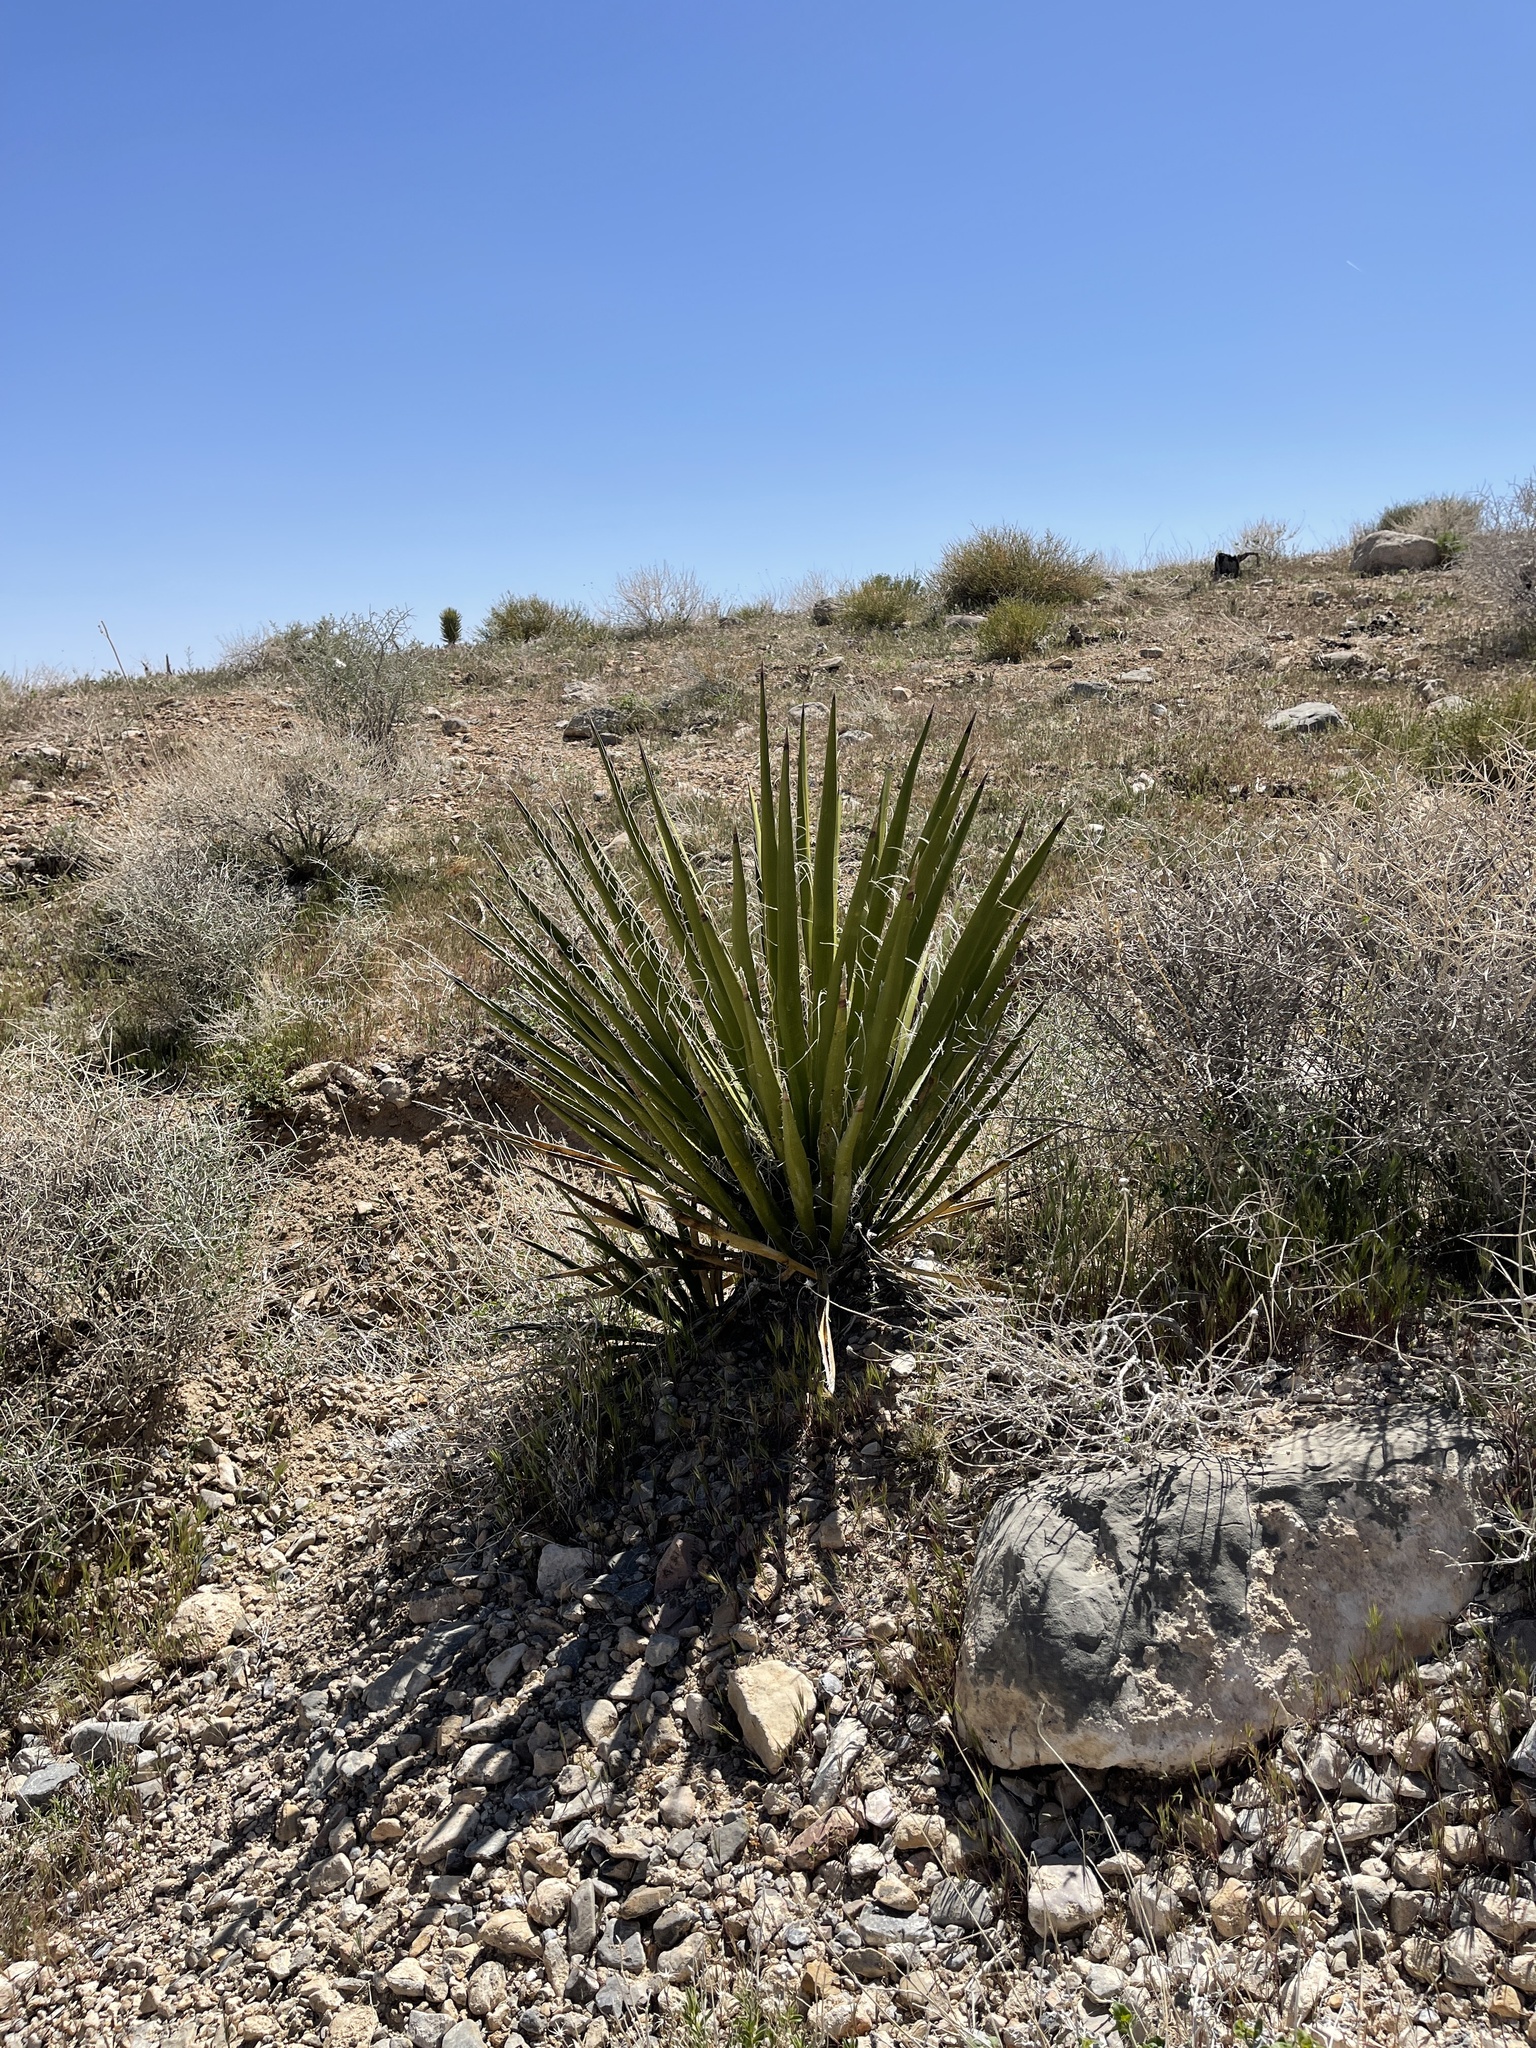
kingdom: Plantae
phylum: Tracheophyta
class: Liliopsida
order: Asparagales
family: Asparagaceae
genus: Yucca
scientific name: Yucca schidigera
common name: Mojave yucca
